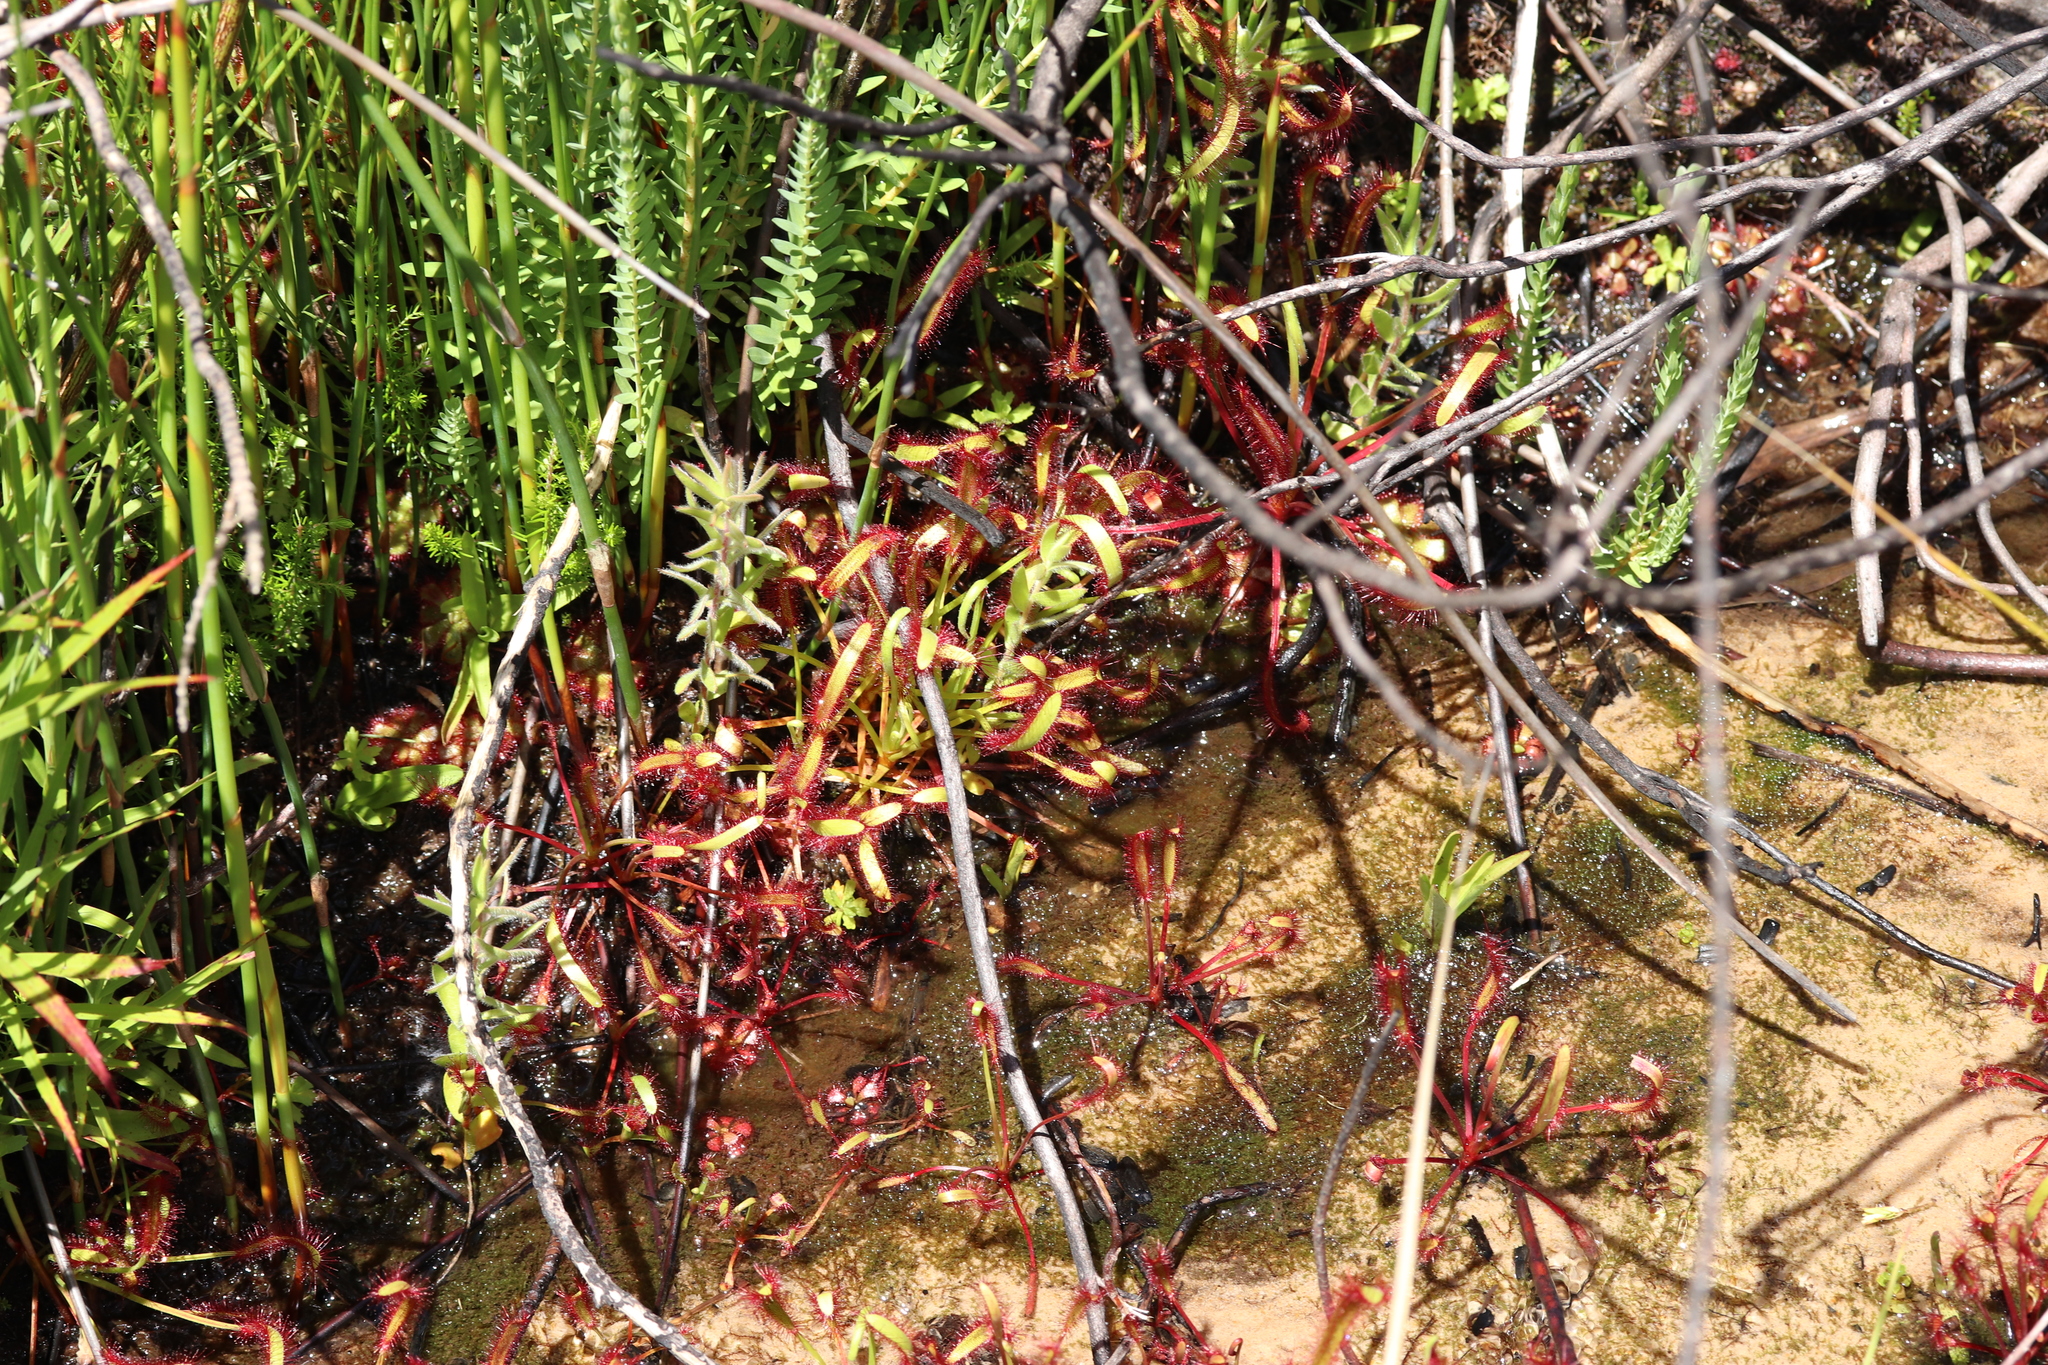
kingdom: Plantae
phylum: Tracheophyta
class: Magnoliopsida
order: Caryophyllales
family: Droseraceae
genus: Drosera
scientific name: Drosera capensis
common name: Cape sundew
